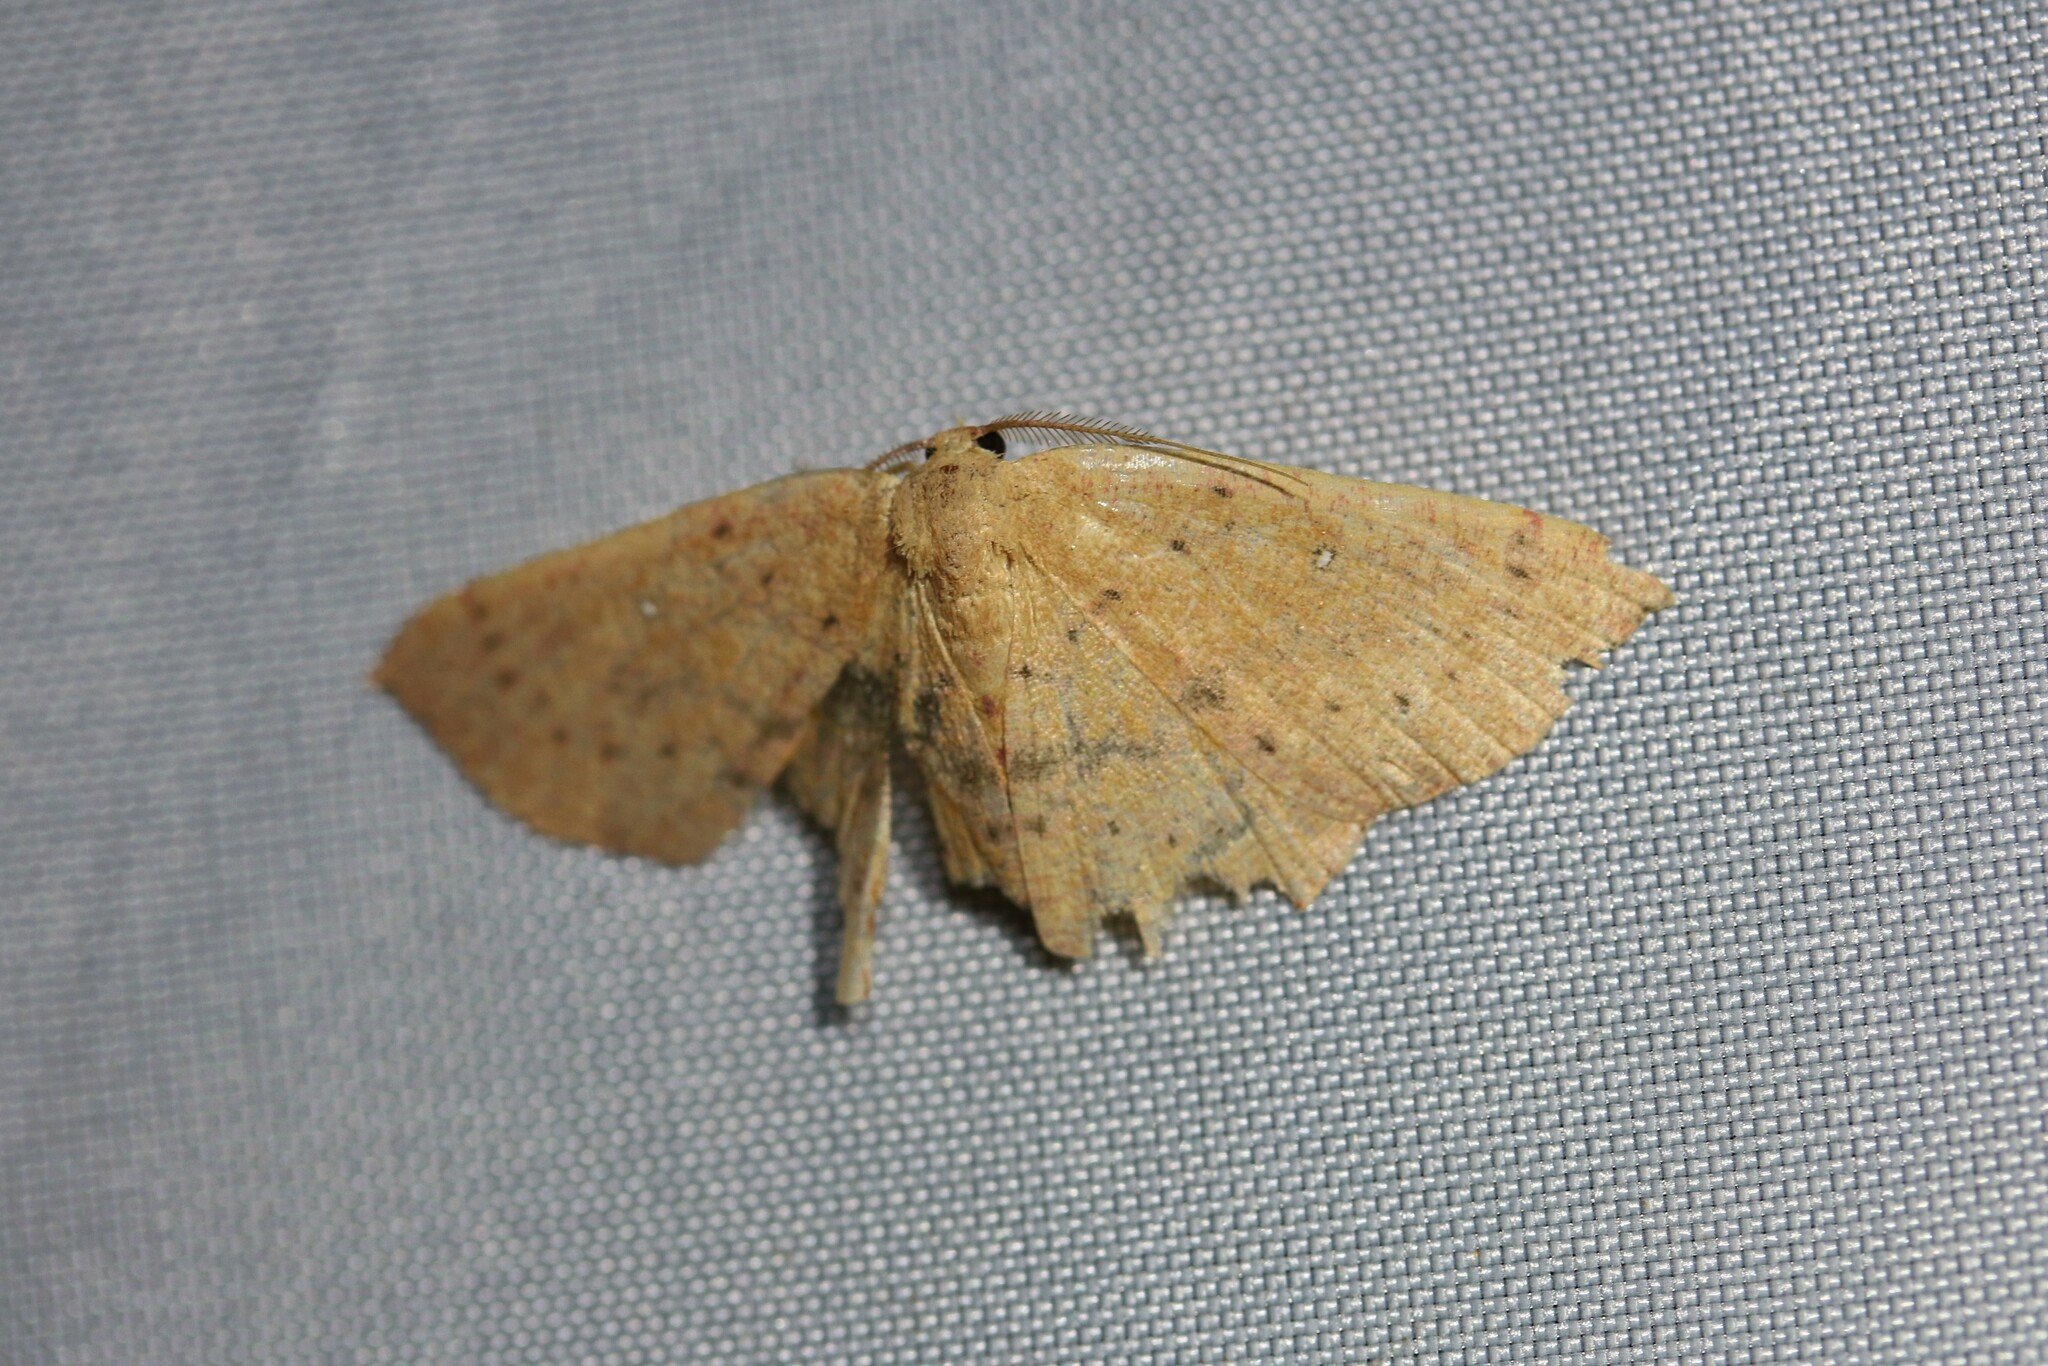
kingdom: Animalia
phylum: Arthropoda
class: Insecta
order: Lepidoptera
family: Geometridae
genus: Cyclophora
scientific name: Cyclophora puppillaria
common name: Blair's mocha
